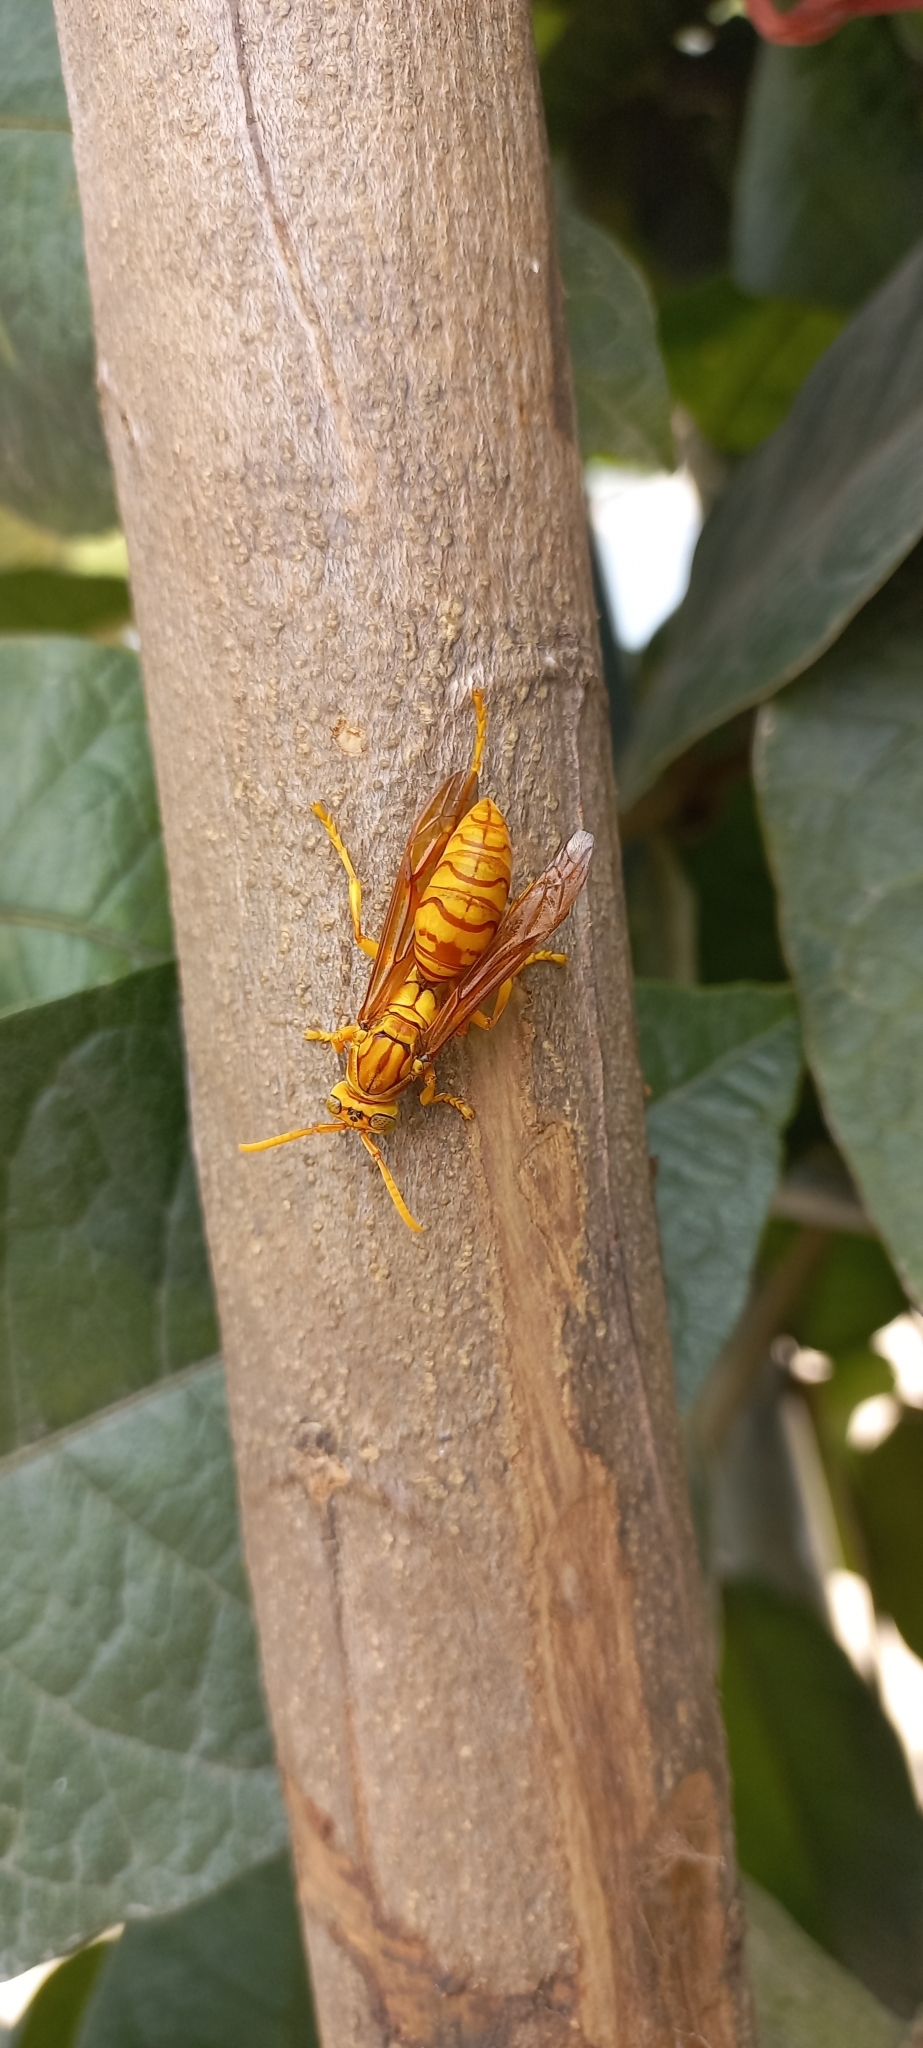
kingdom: Animalia
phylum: Arthropoda
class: Insecta
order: Hymenoptera
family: Eumenidae
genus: Polistes
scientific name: Polistes olivaceus
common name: Paper wasp
